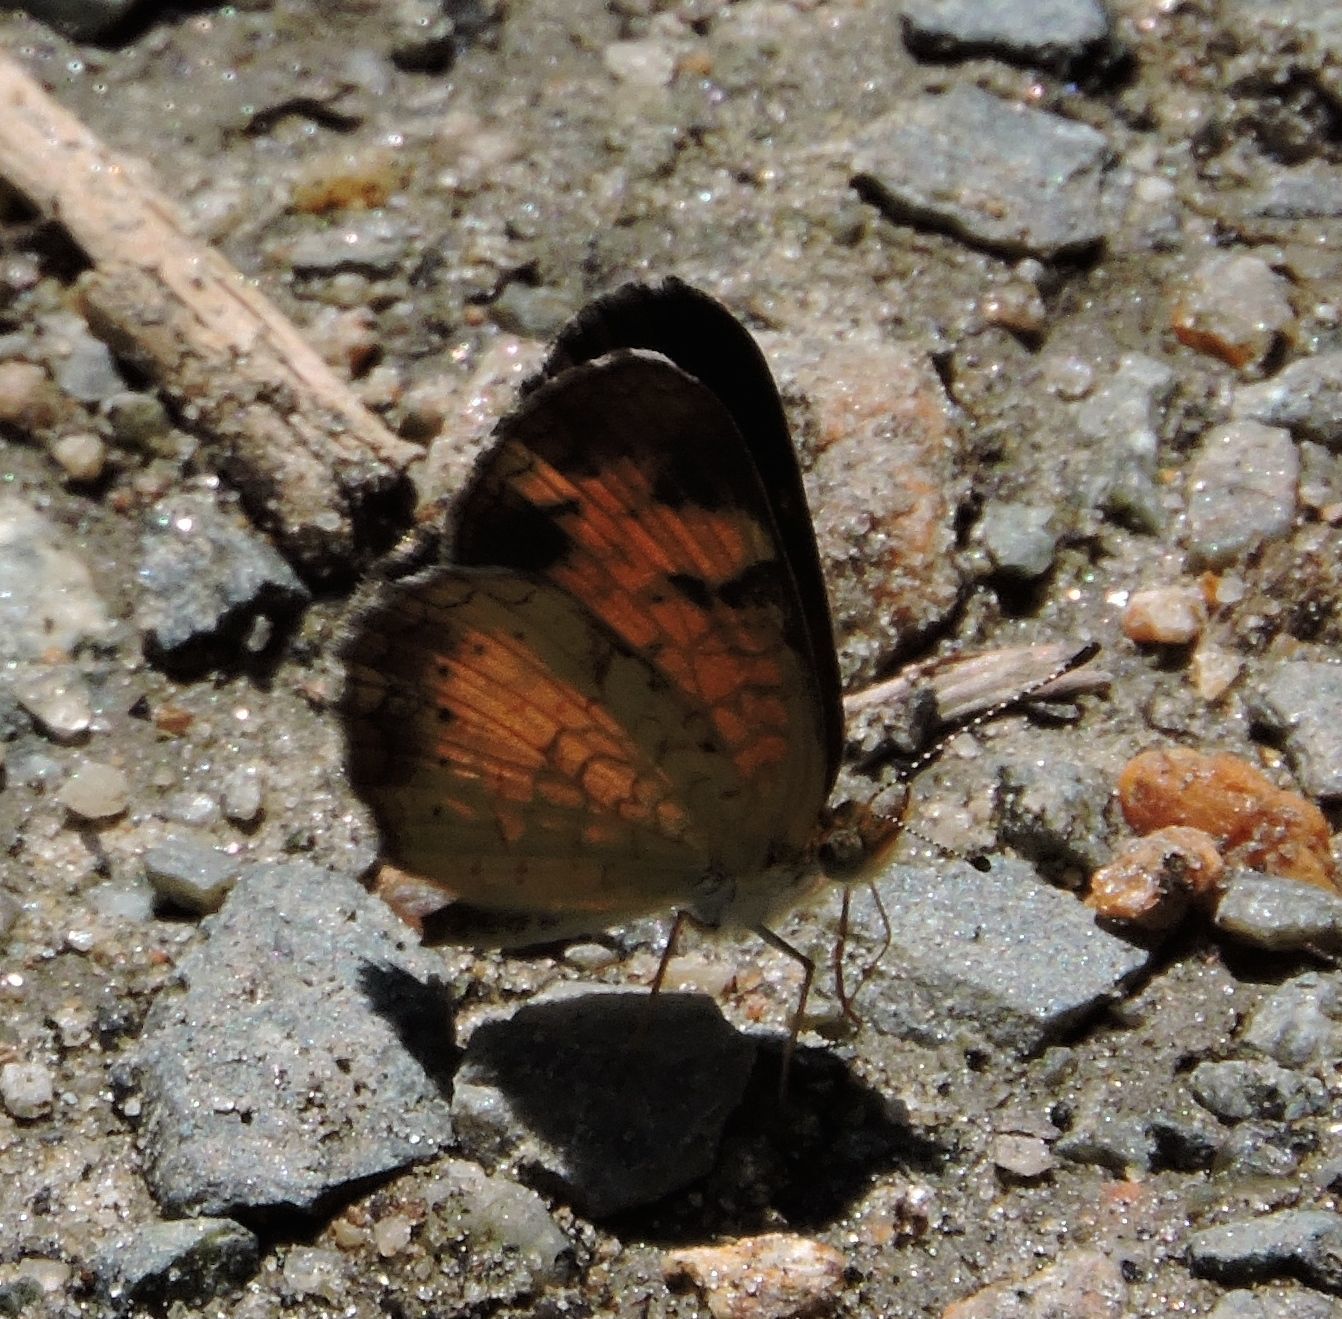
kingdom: Animalia
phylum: Arthropoda
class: Insecta
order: Lepidoptera
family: Nymphalidae
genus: Phyciodes
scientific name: Phyciodes tharos
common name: Pearl crescent
